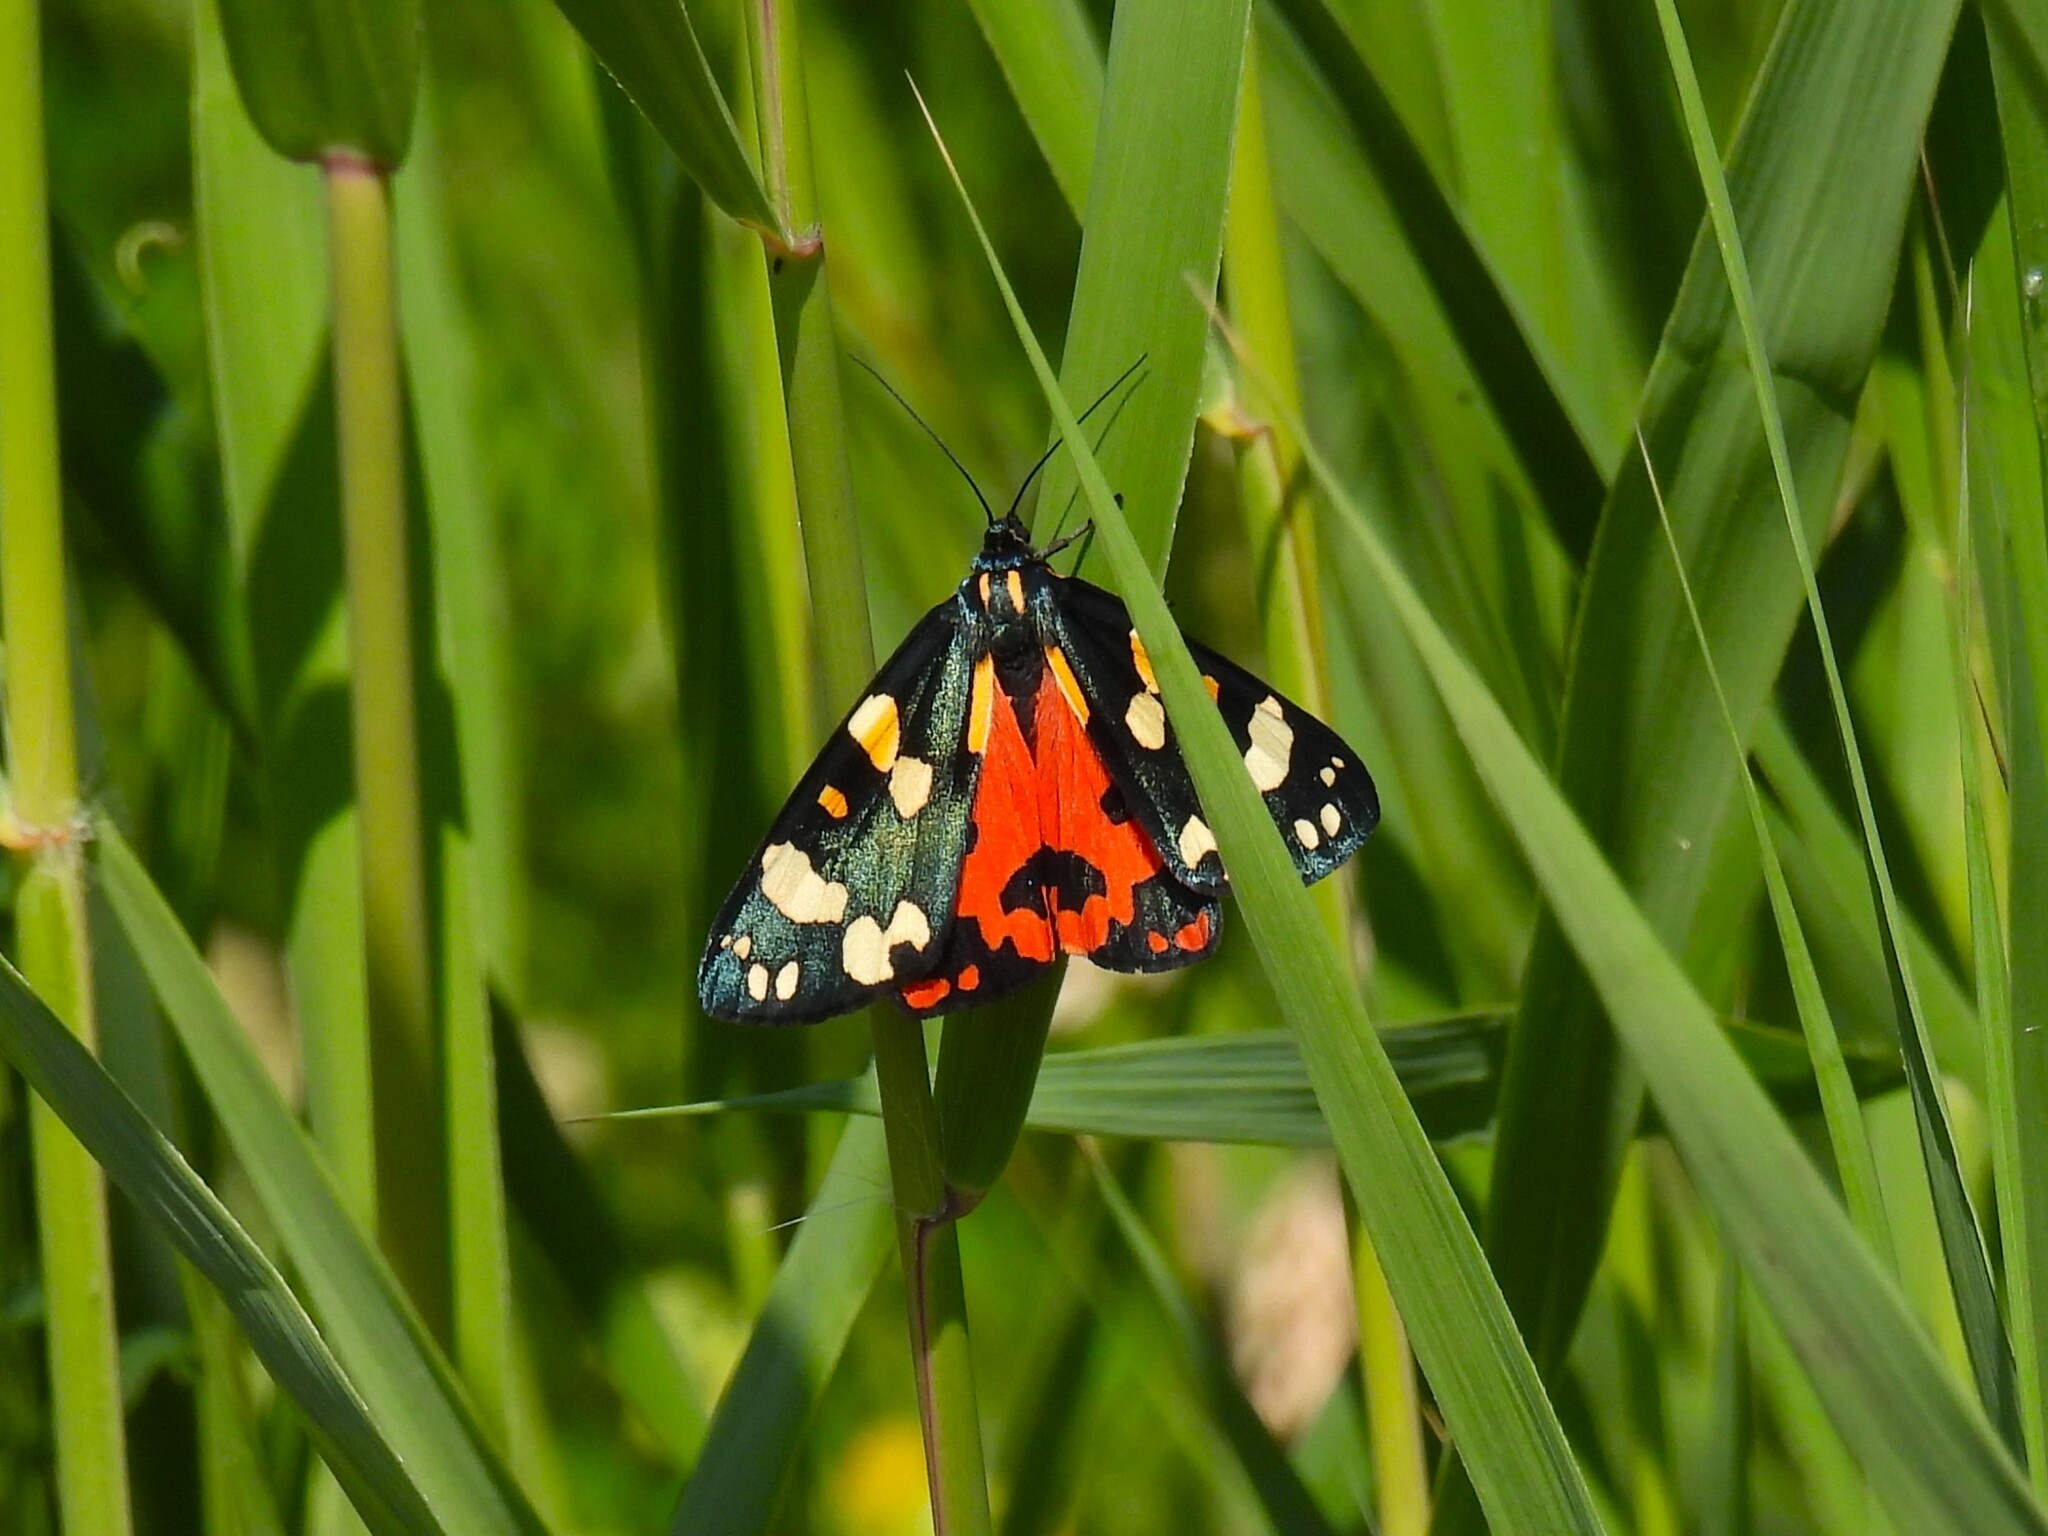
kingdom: Animalia
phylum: Arthropoda
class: Insecta
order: Lepidoptera
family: Erebidae
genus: Callimorpha
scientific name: Callimorpha dominula
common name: Scarlet tiger
